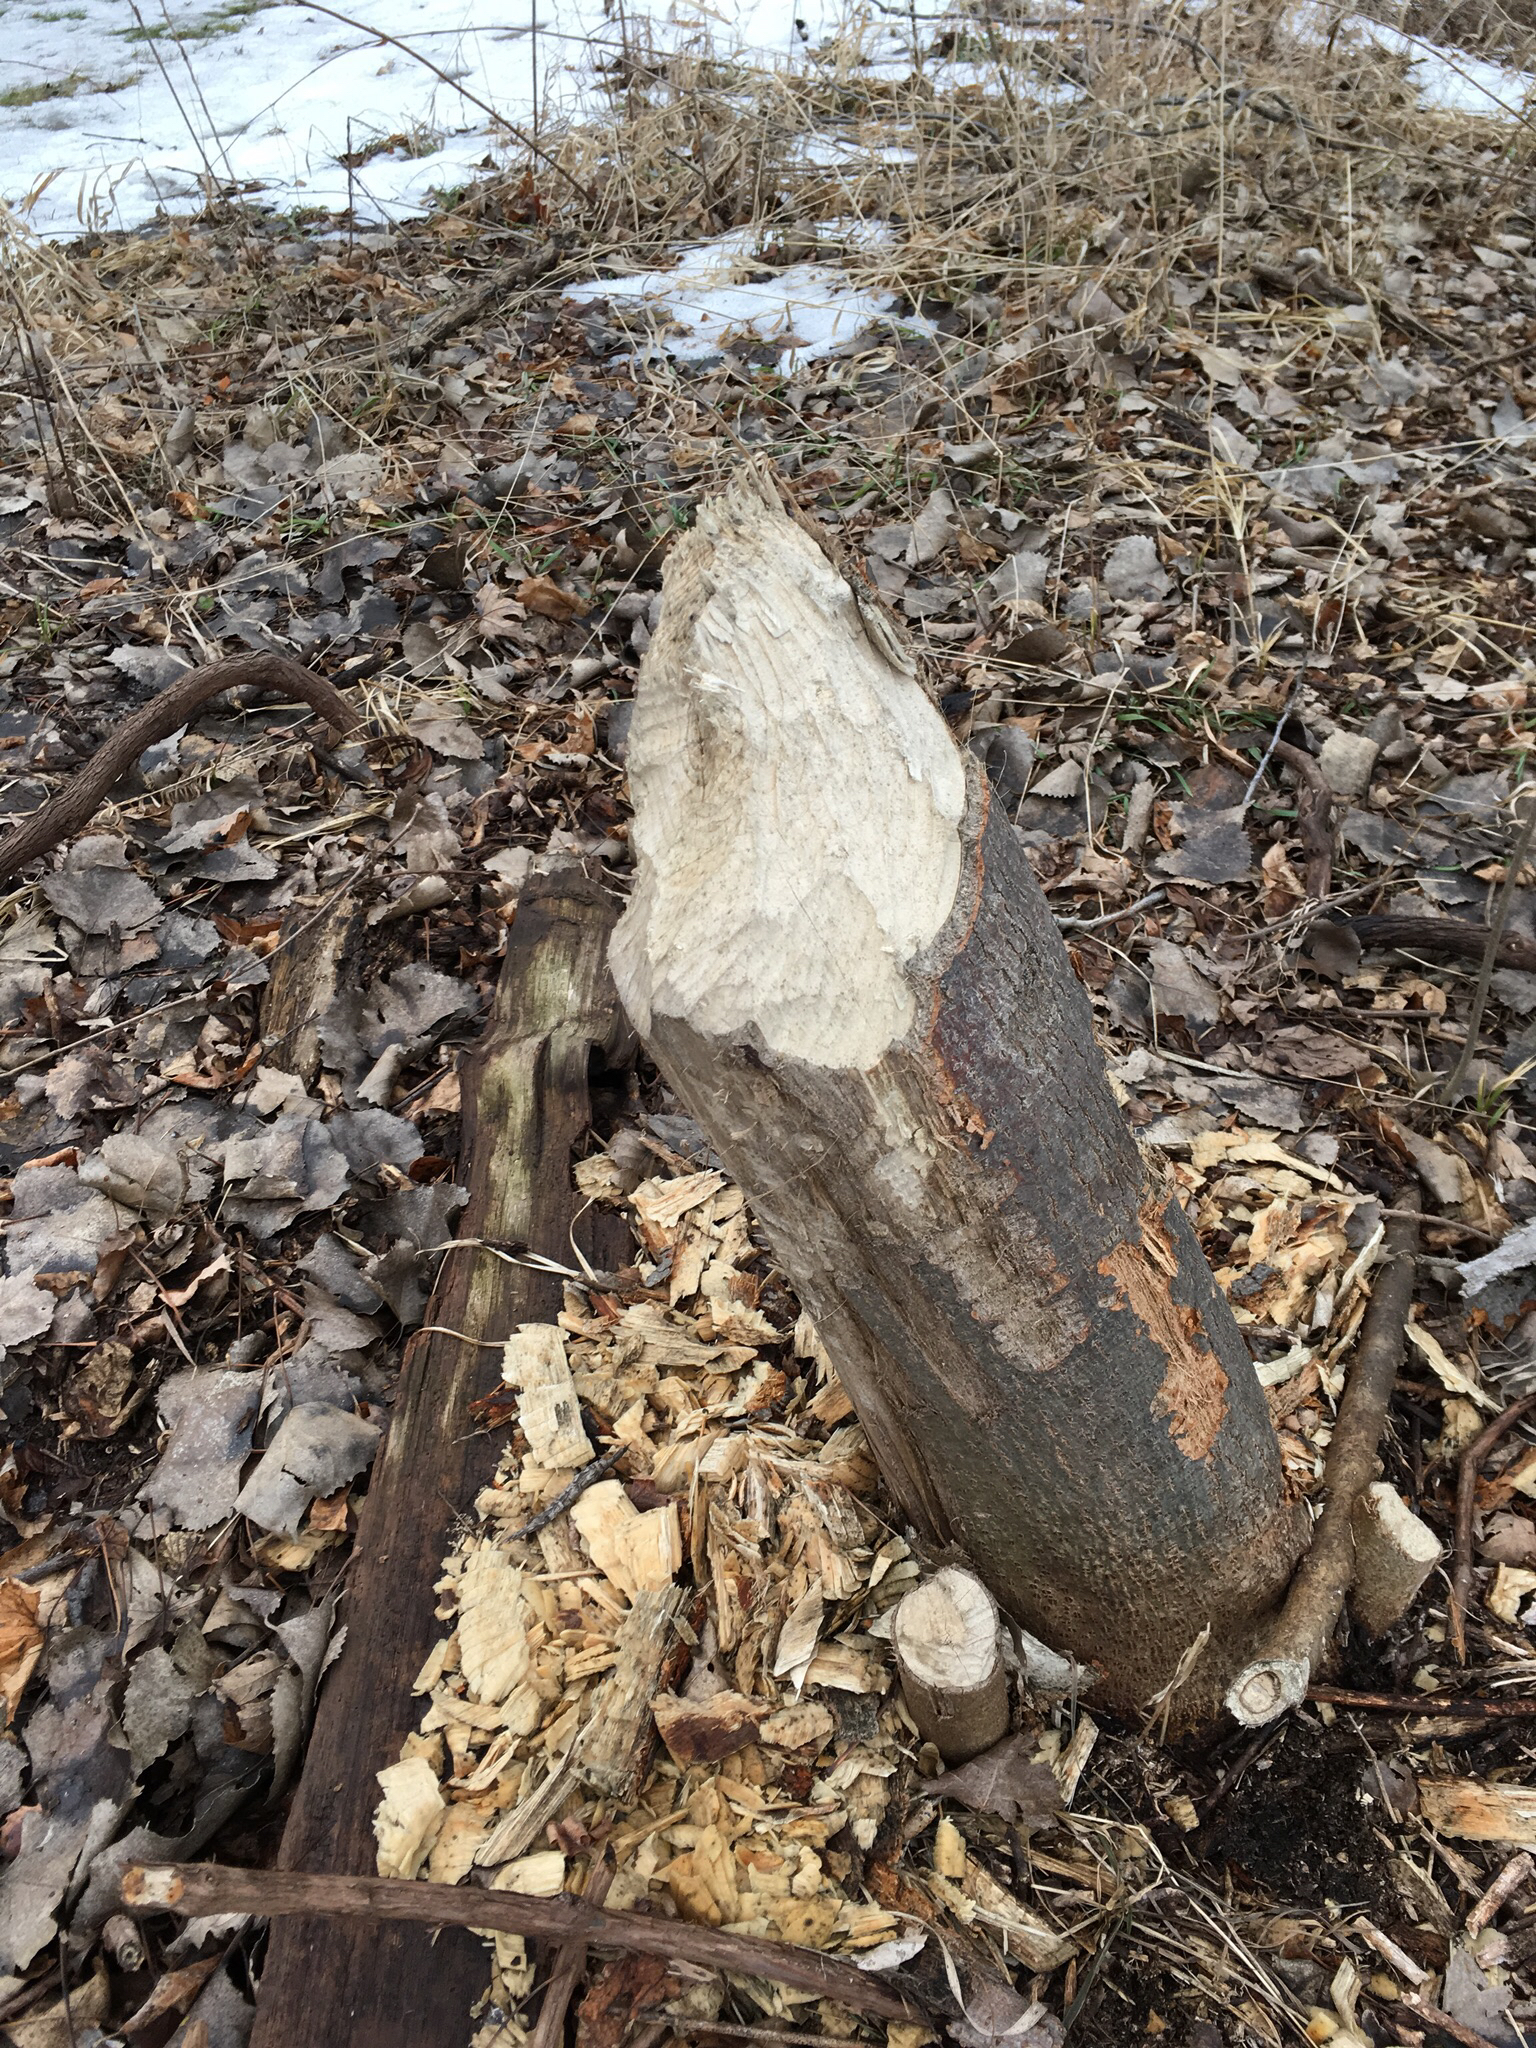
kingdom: Animalia
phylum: Chordata
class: Mammalia
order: Rodentia
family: Castoridae
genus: Castor
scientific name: Castor canadensis
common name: American beaver
